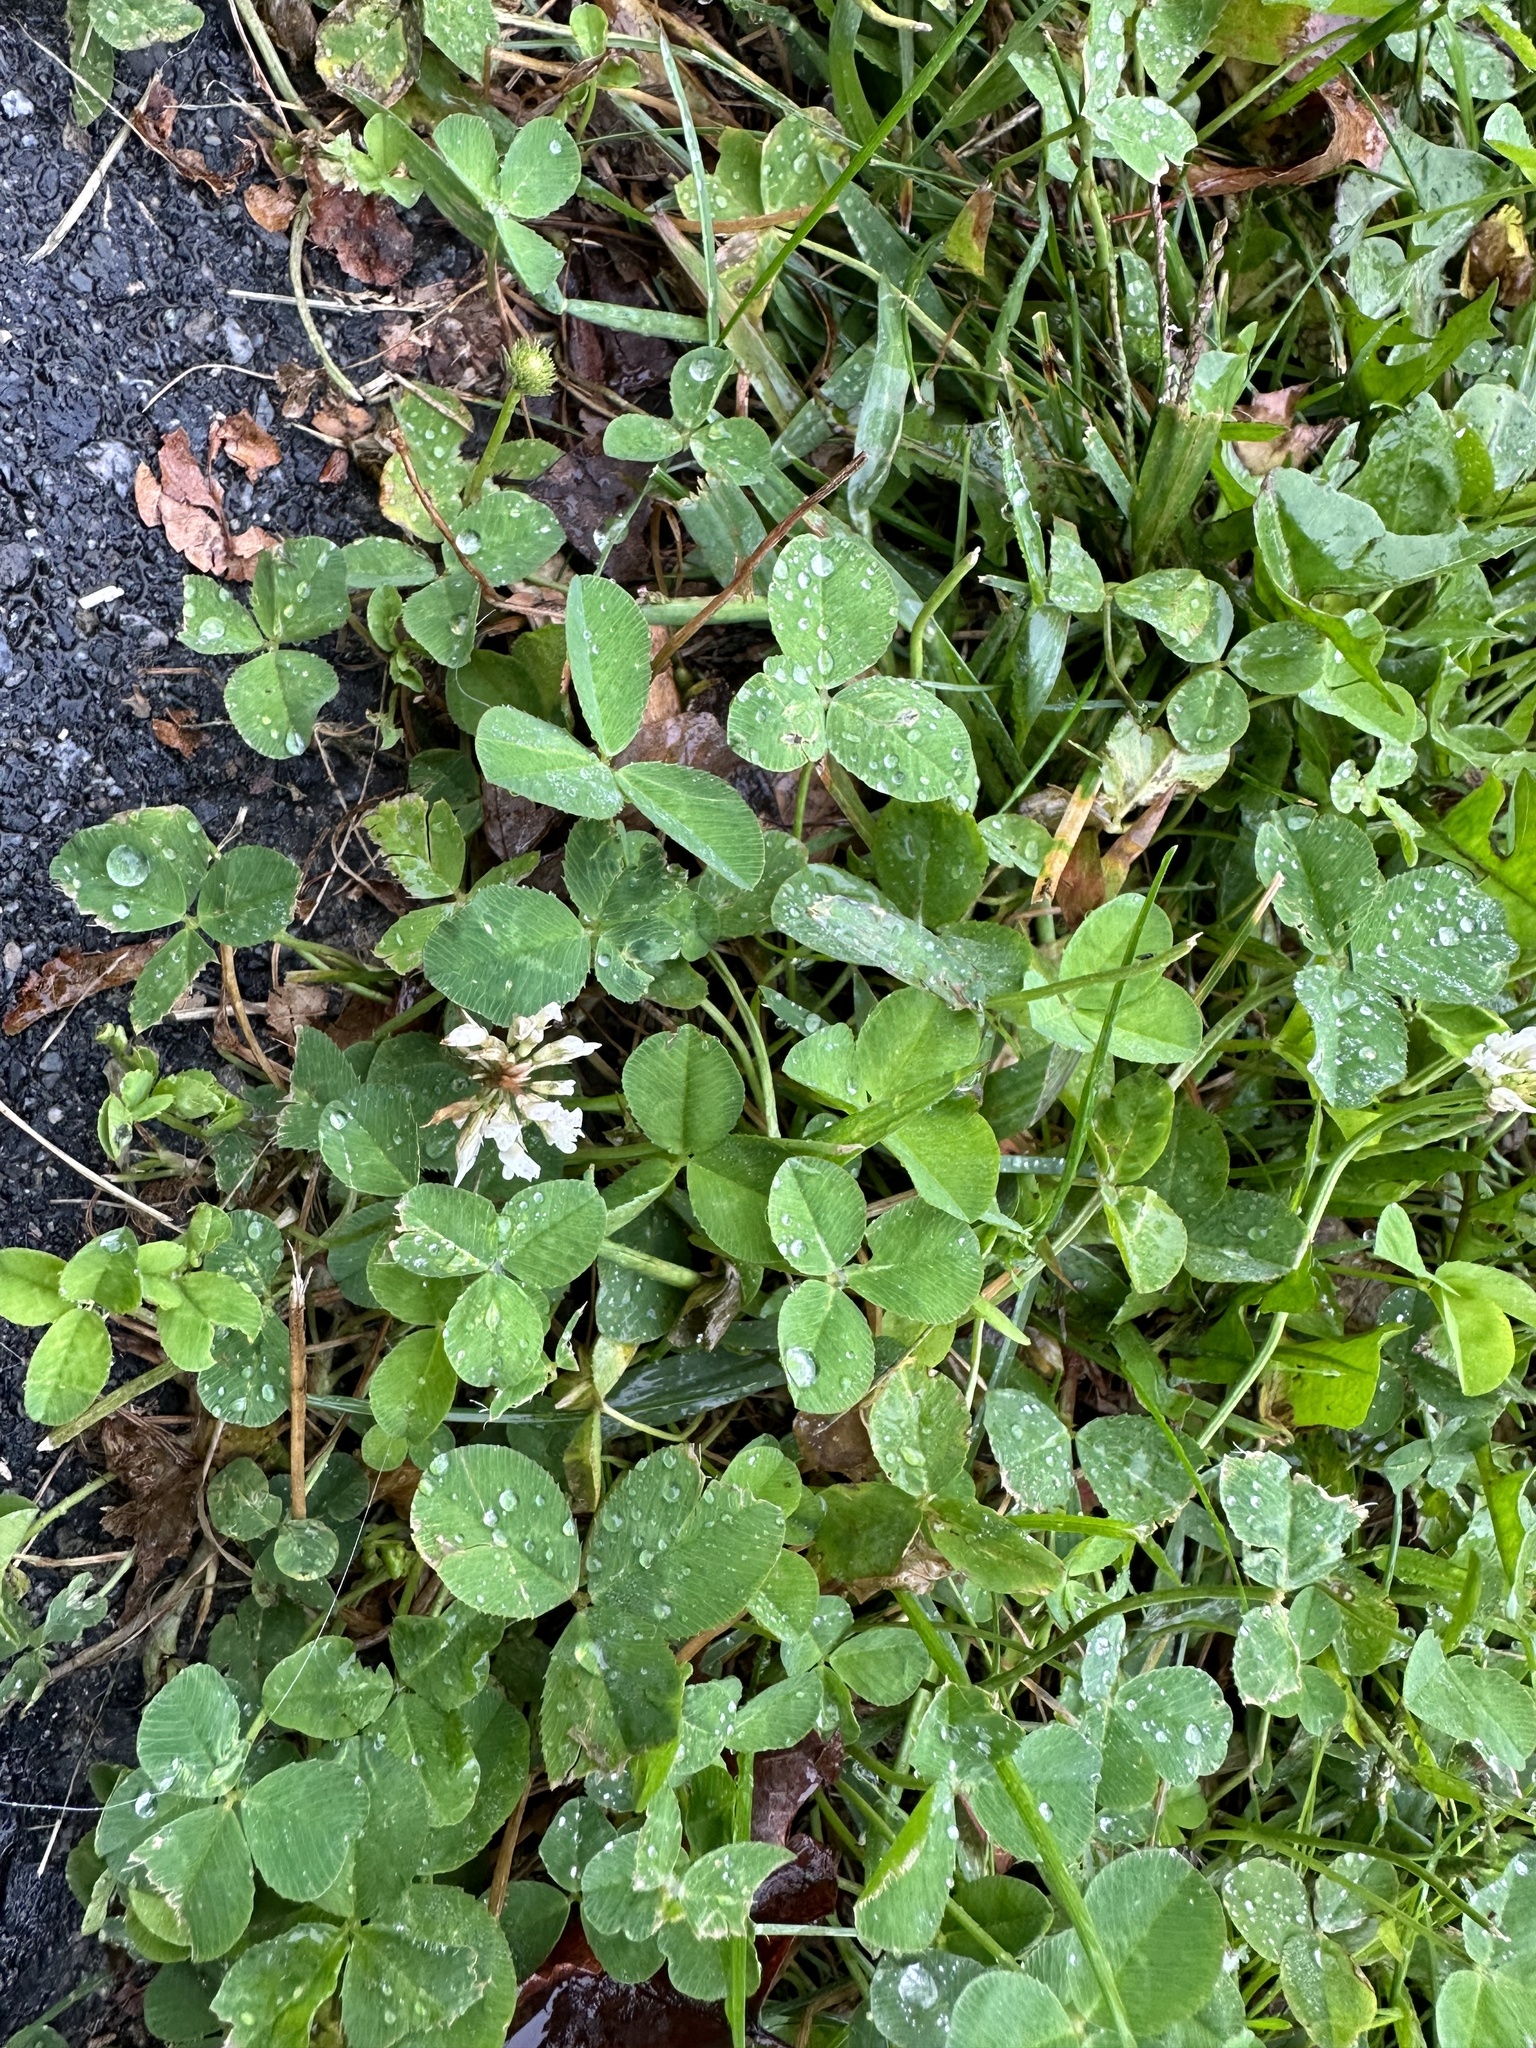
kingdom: Plantae
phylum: Tracheophyta
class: Magnoliopsida
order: Fabales
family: Fabaceae
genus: Trifolium
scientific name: Trifolium repens
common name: White clover
